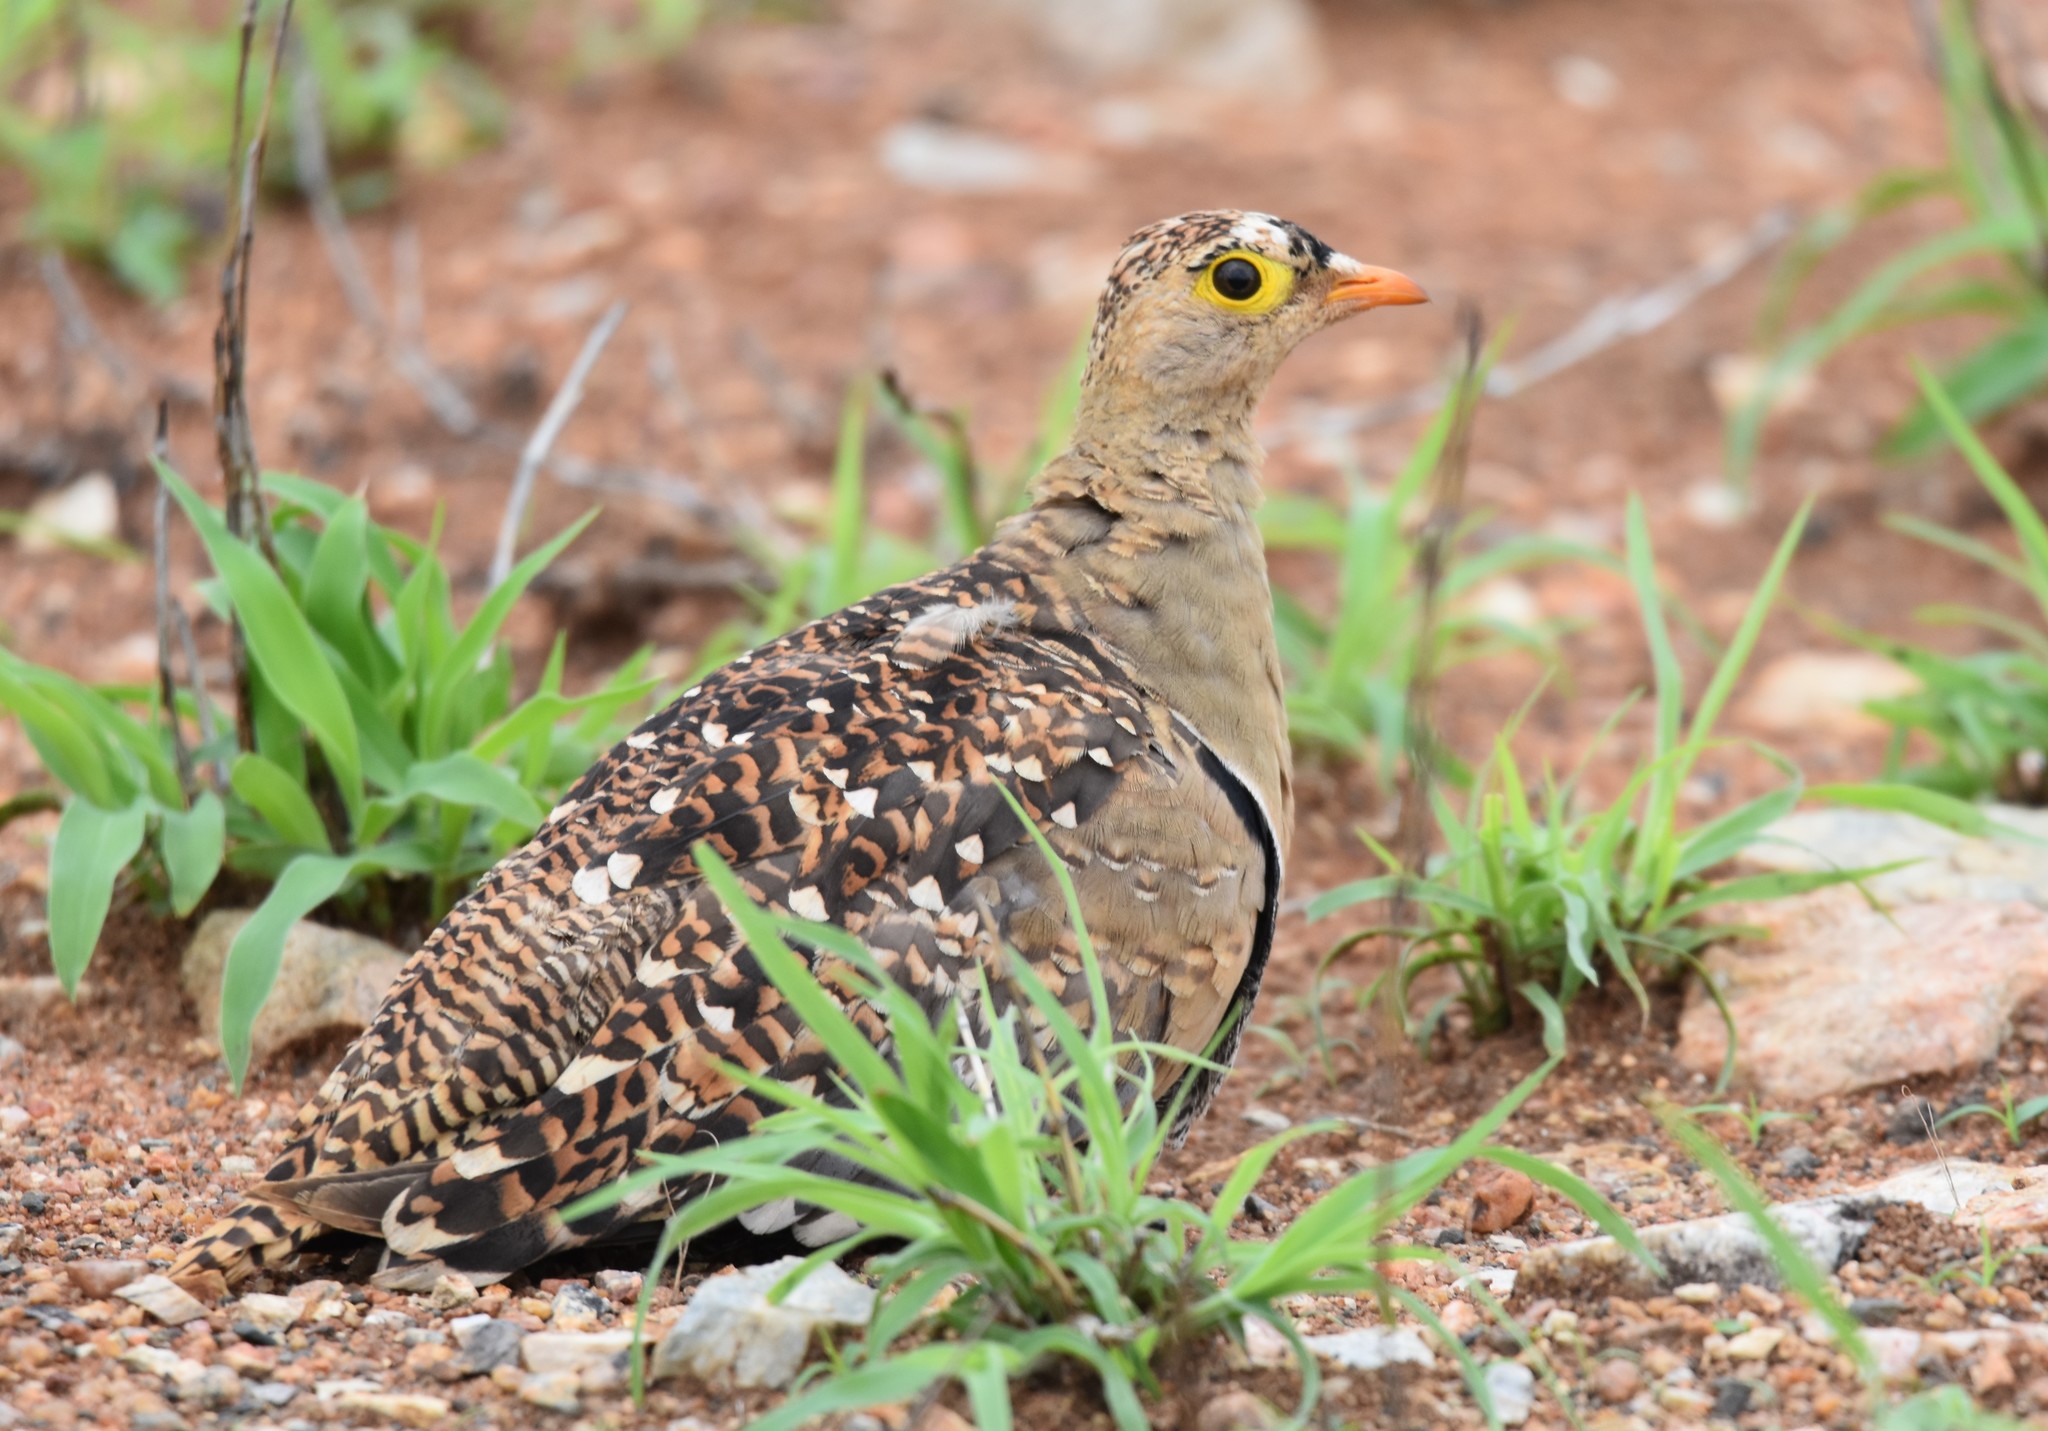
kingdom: Animalia
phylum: Chordata
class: Aves
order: Pteroclidiformes
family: Pteroclididae
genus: Pterocles
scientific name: Pterocles bicinctus
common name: Double-banded sandgrouse
